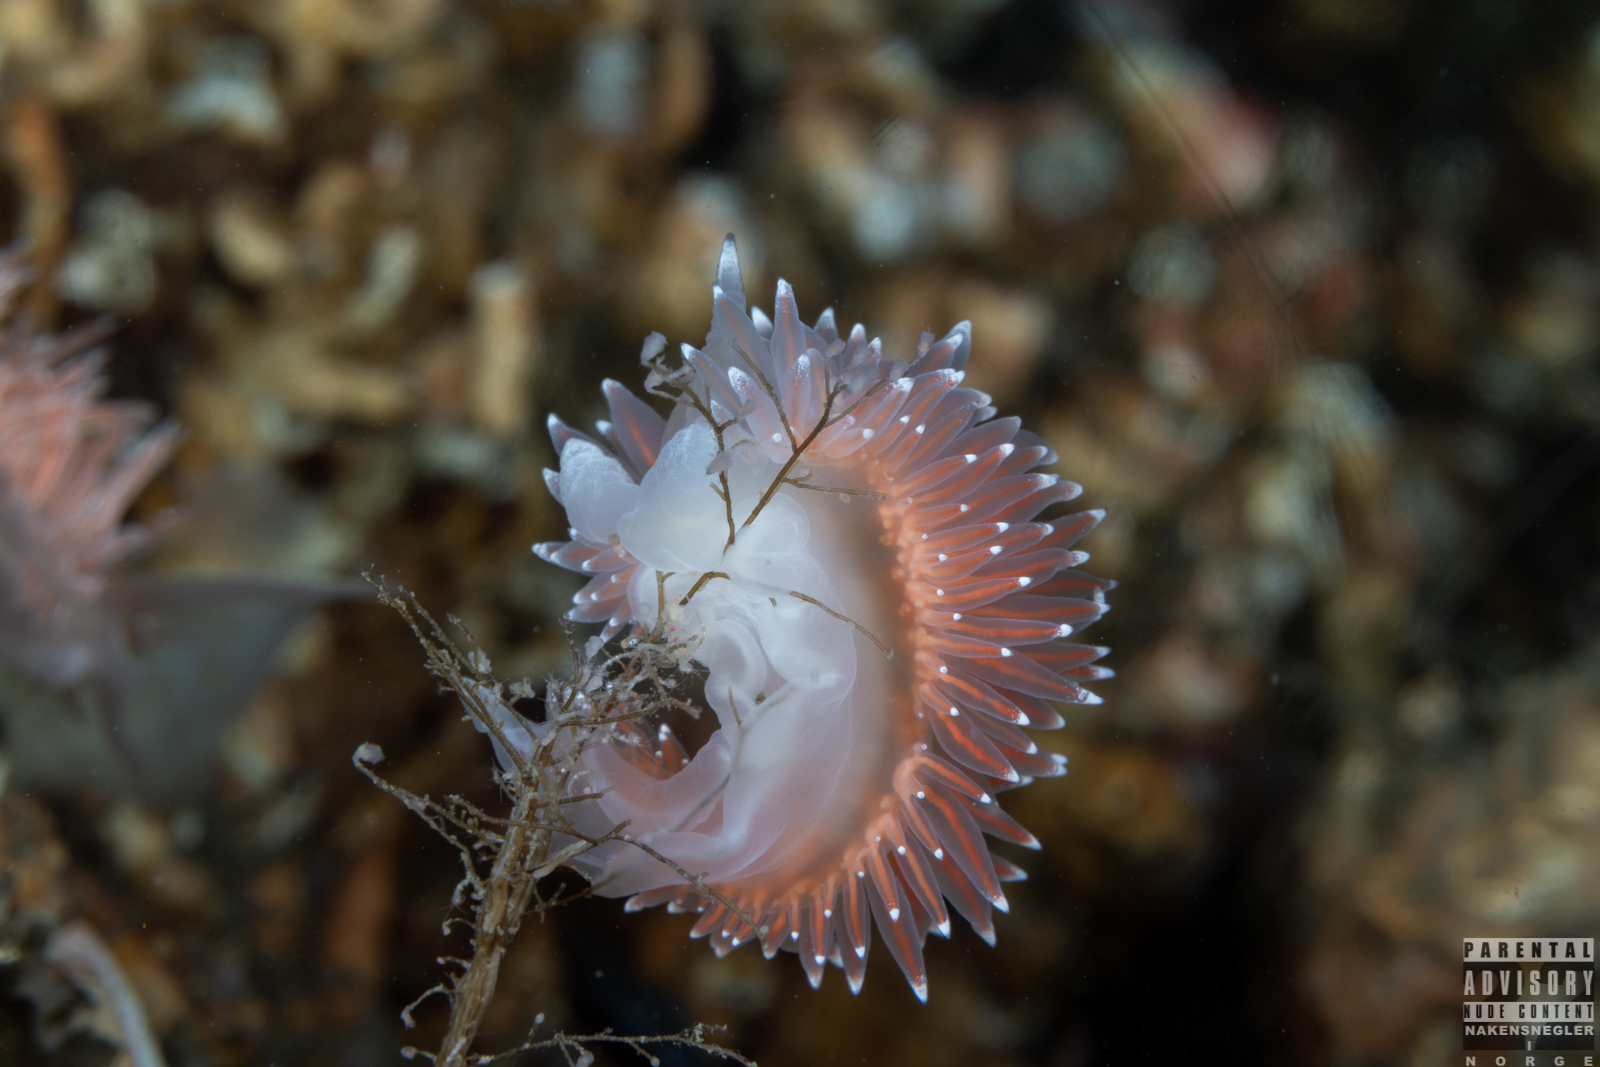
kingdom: Animalia
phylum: Mollusca
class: Gastropoda
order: Nudibranchia
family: Coryphellidae
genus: Coryphella
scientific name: Coryphella nobilis
